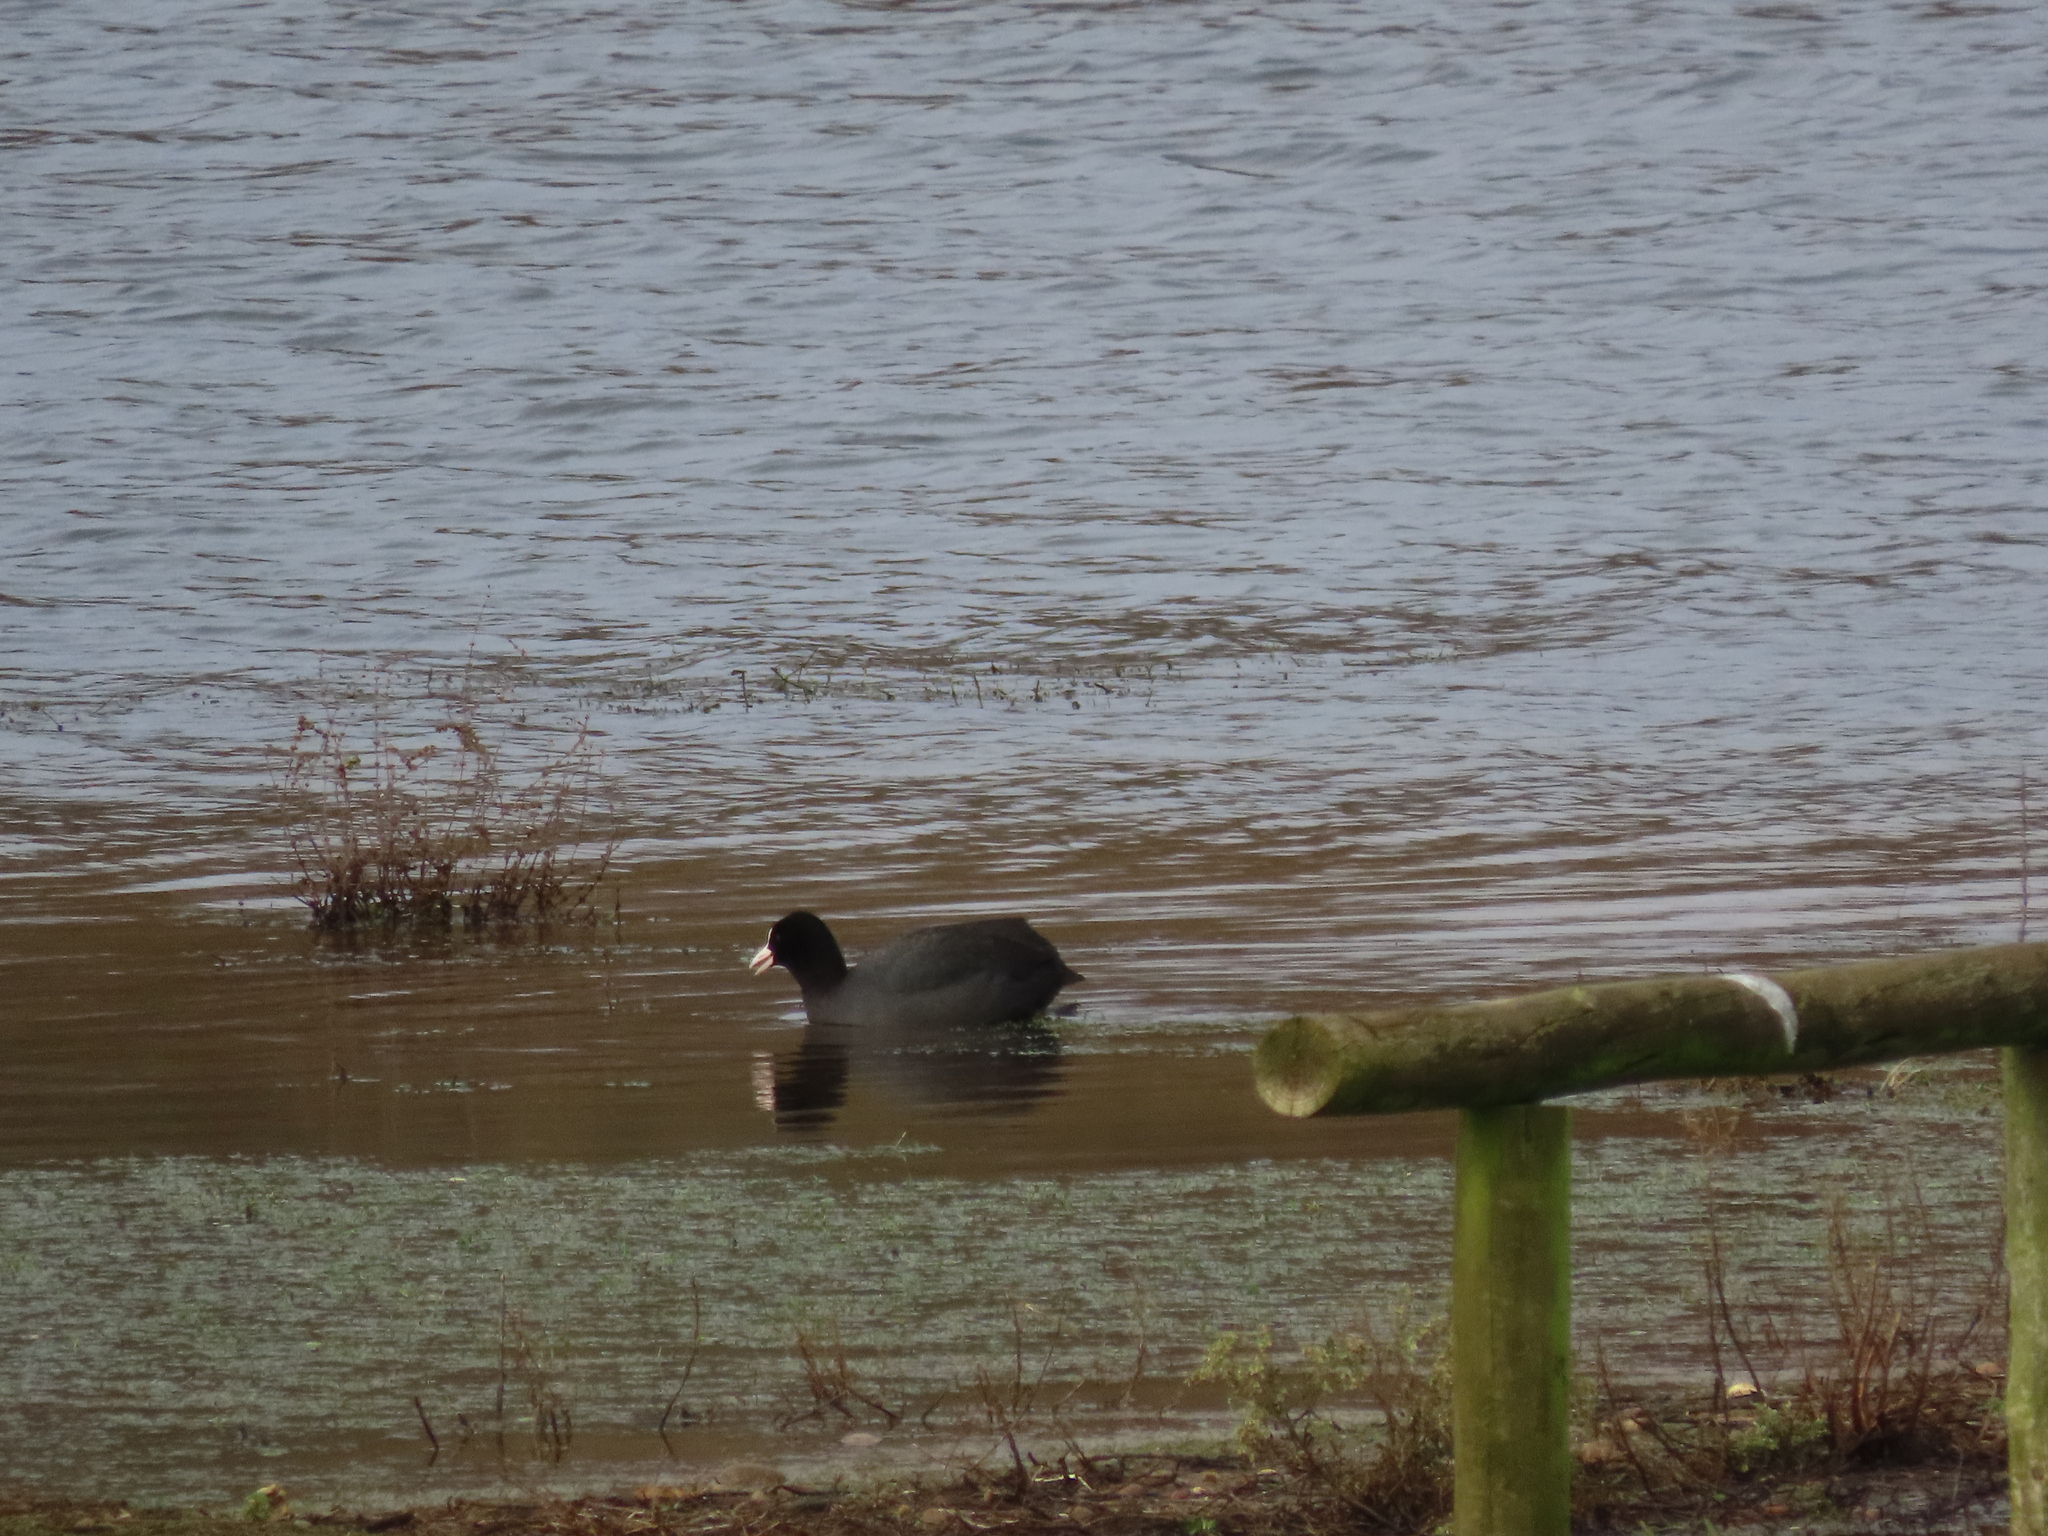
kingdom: Animalia
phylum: Chordata
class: Aves
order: Gruiformes
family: Rallidae
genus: Fulica
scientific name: Fulica atra
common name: Eurasian coot
